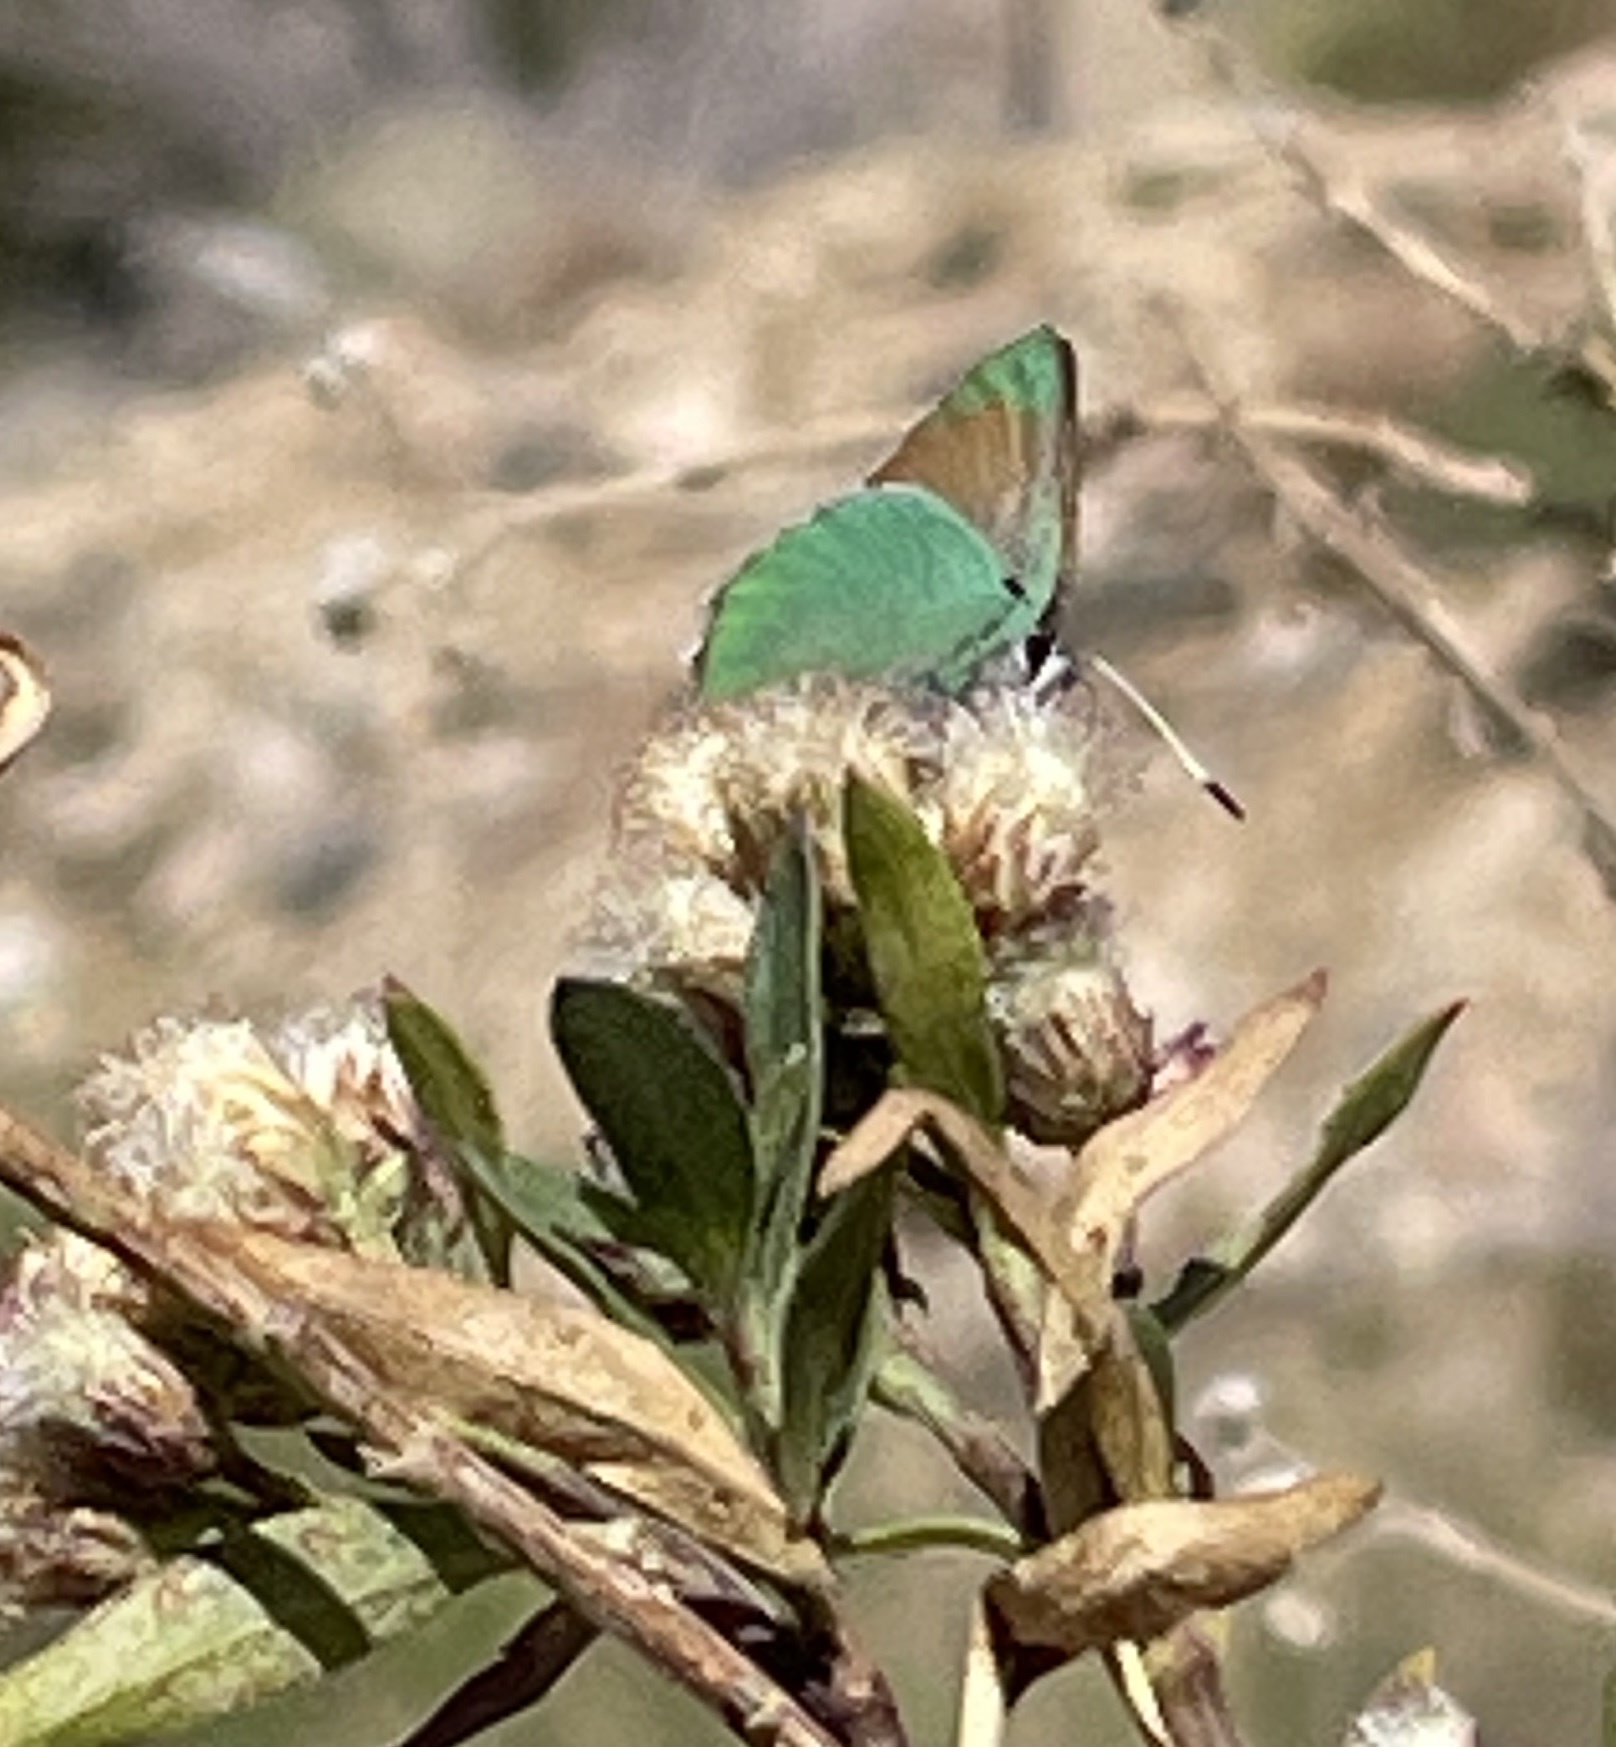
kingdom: Animalia
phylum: Arthropoda
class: Insecta
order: Lepidoptera
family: Lycaenidae
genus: Callophrys
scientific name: Callophrys dumetorum
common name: Bramble hairstreak
